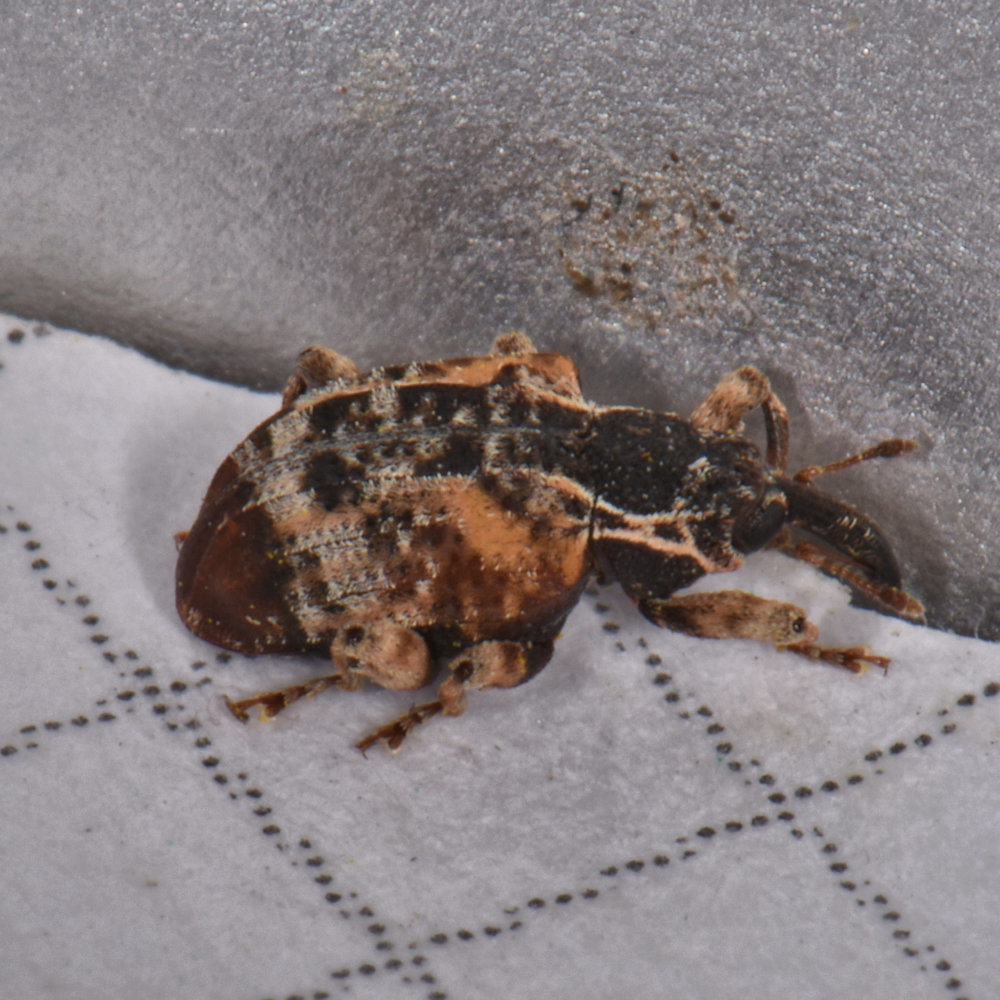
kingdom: Animalia
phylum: Arthropoda
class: Insecta
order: Coleoptera
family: Curculionidae
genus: Conotrachelus
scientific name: Conotrachelus anaglypticus
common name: Cambium curculio
